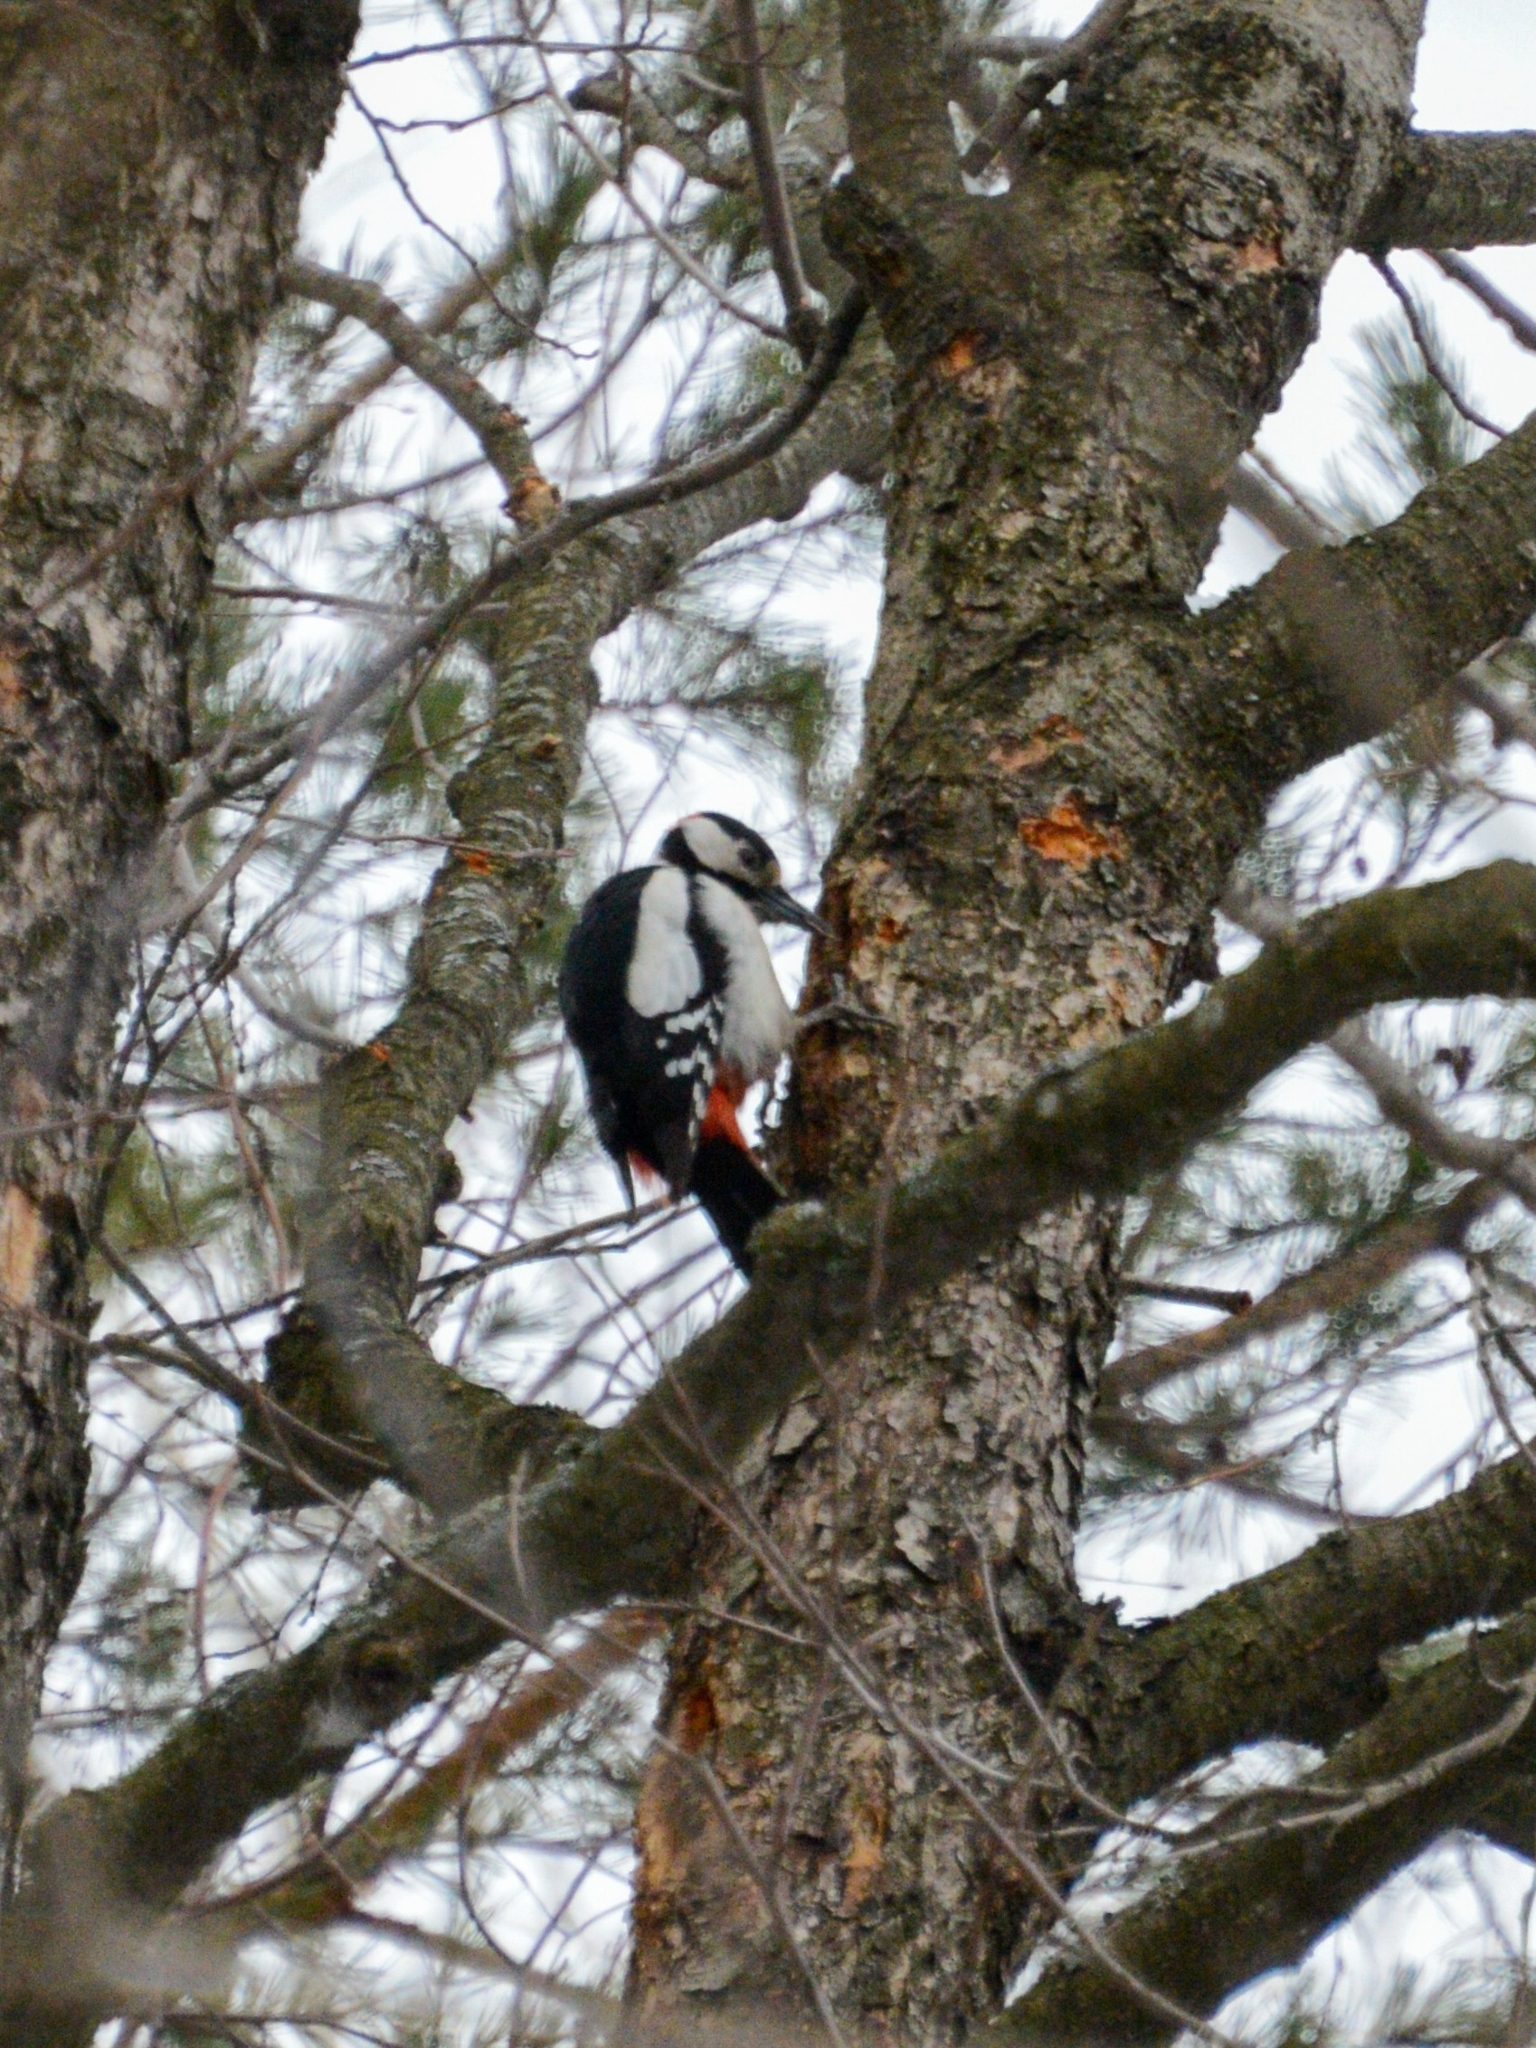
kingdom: Animalia
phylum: Chordata
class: Aves
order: Piciformes
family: Picidae
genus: Dendrocopos
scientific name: Dendrocopos major
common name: Great spotted woodpecker
